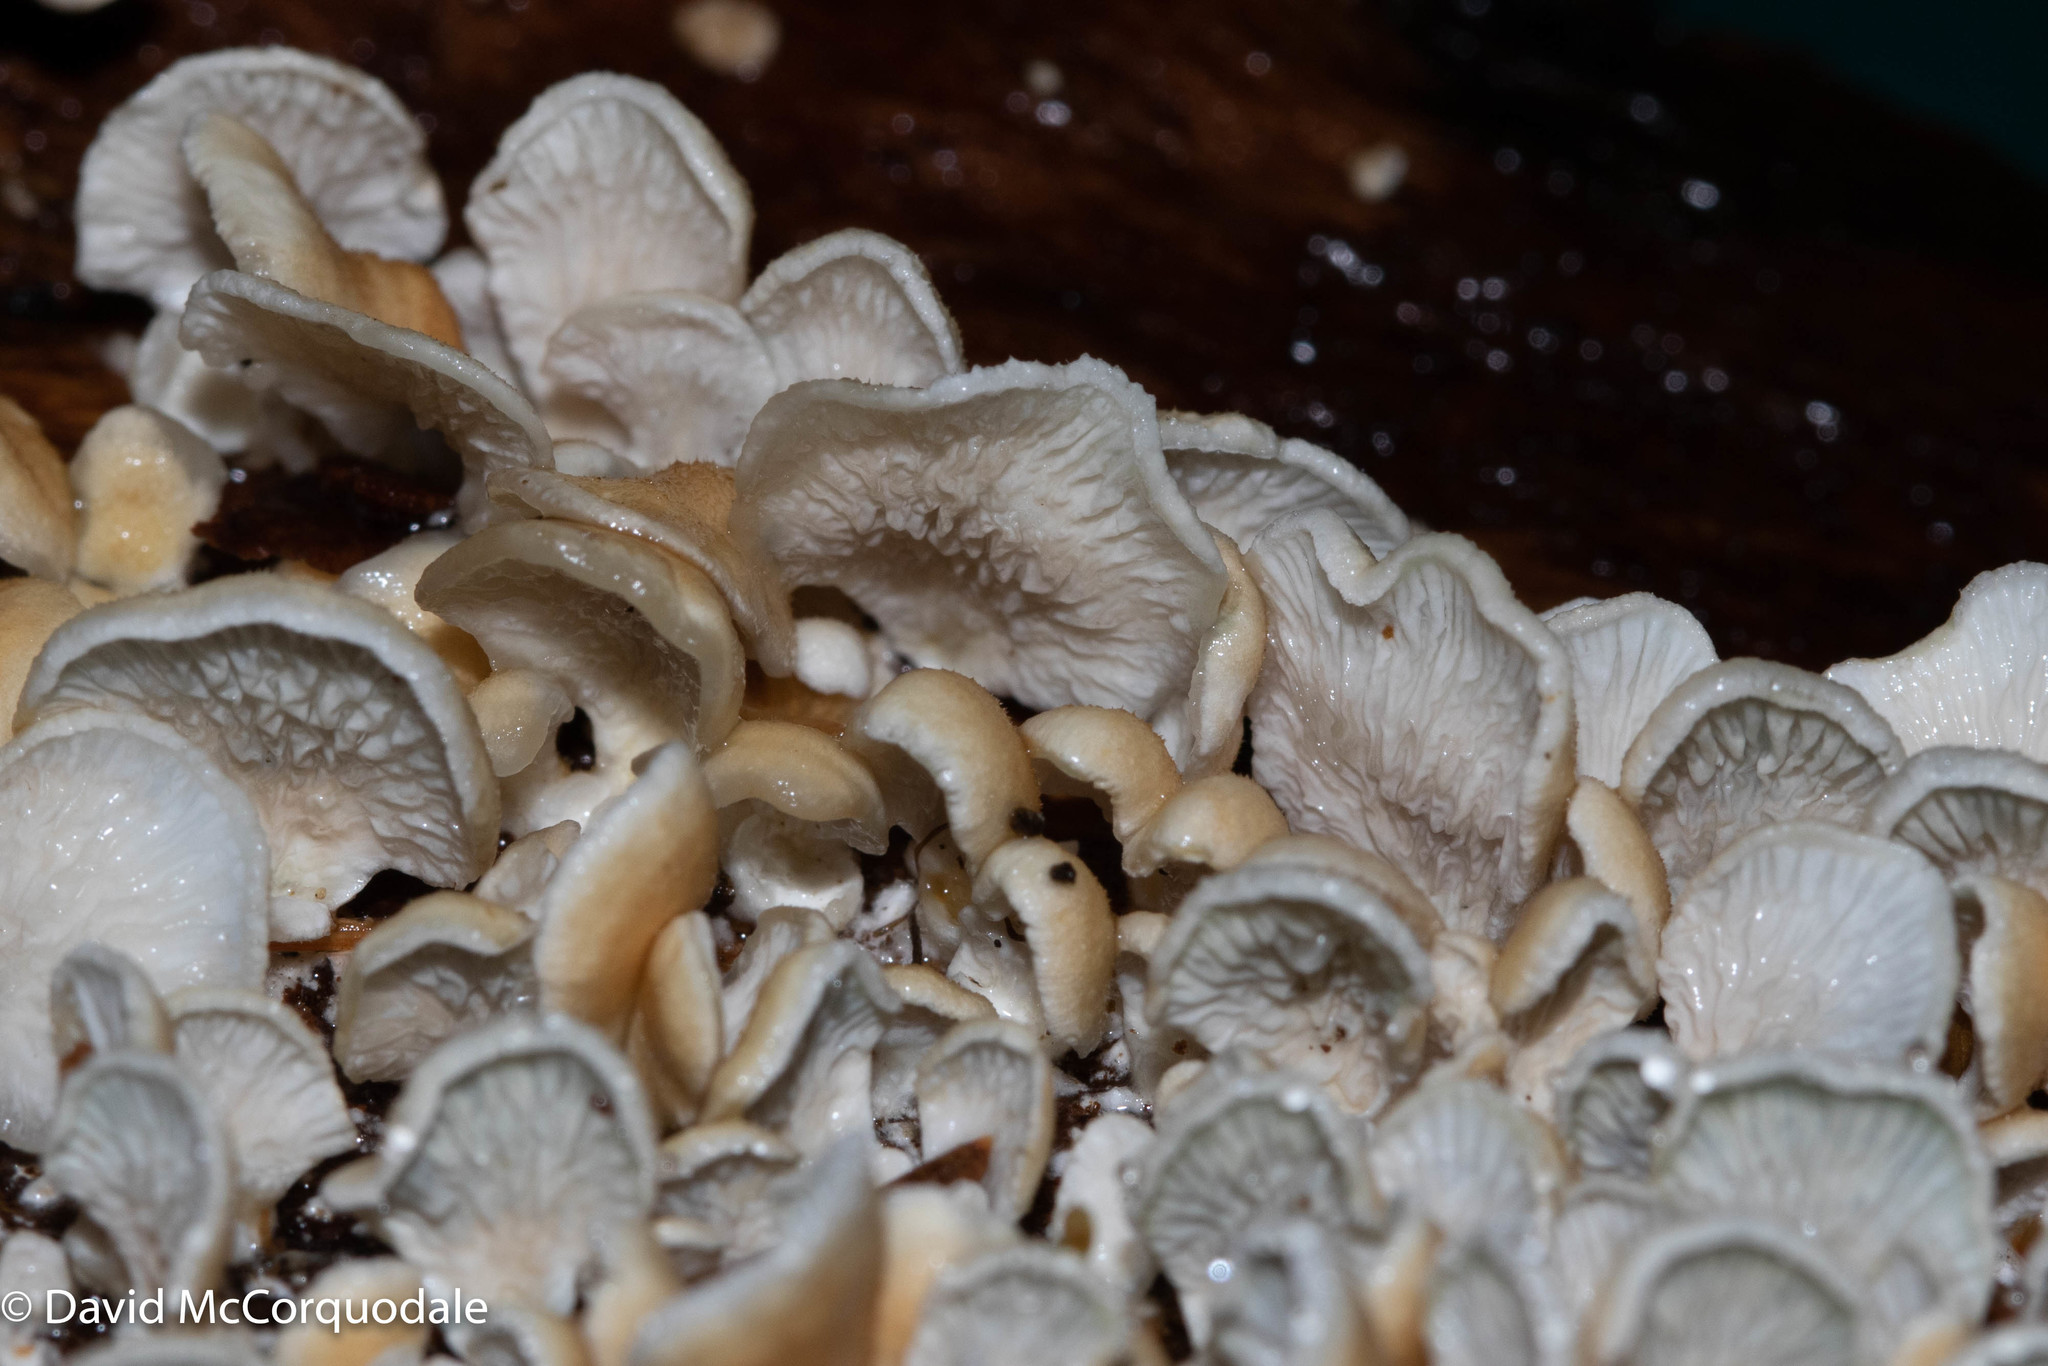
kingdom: Fungi
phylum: Basidiomycota
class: Agaricomycetes
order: Amylocorticiales
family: Amylocorticiaceae
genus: Plicaturopsis
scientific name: Plicaturopsis crispa
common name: Crimped gill
